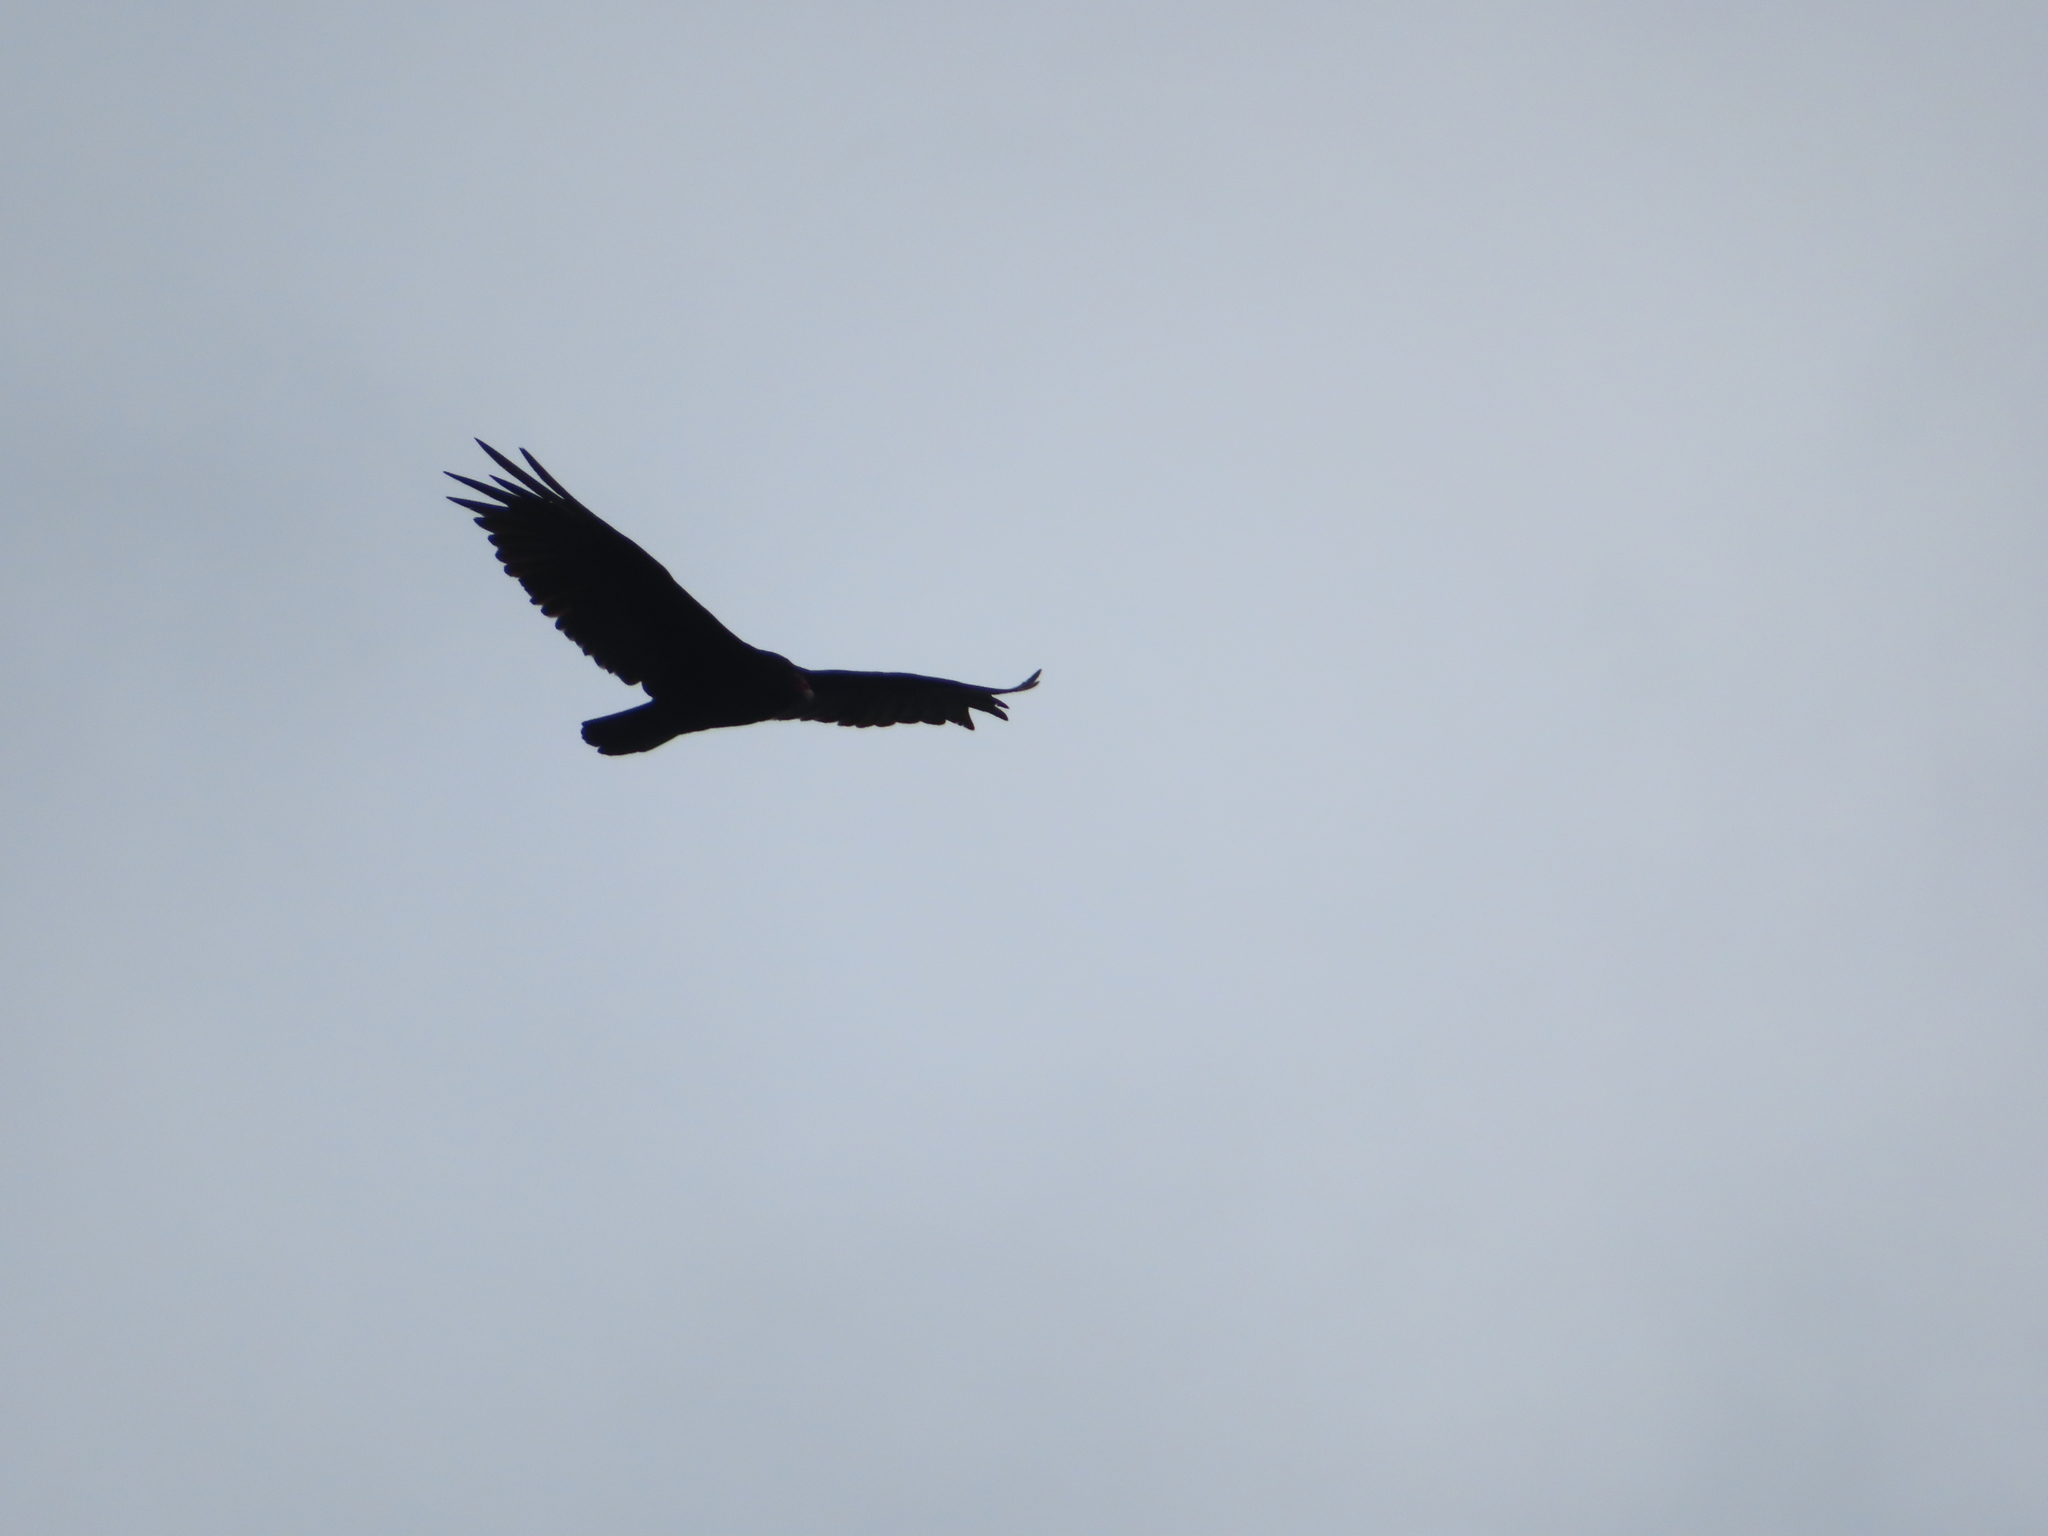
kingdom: Animalia
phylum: Chordata
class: Aves
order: Accipitriformes
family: Cathartidae
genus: Cathartes
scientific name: Cathartes aura
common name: Turkey vulture
